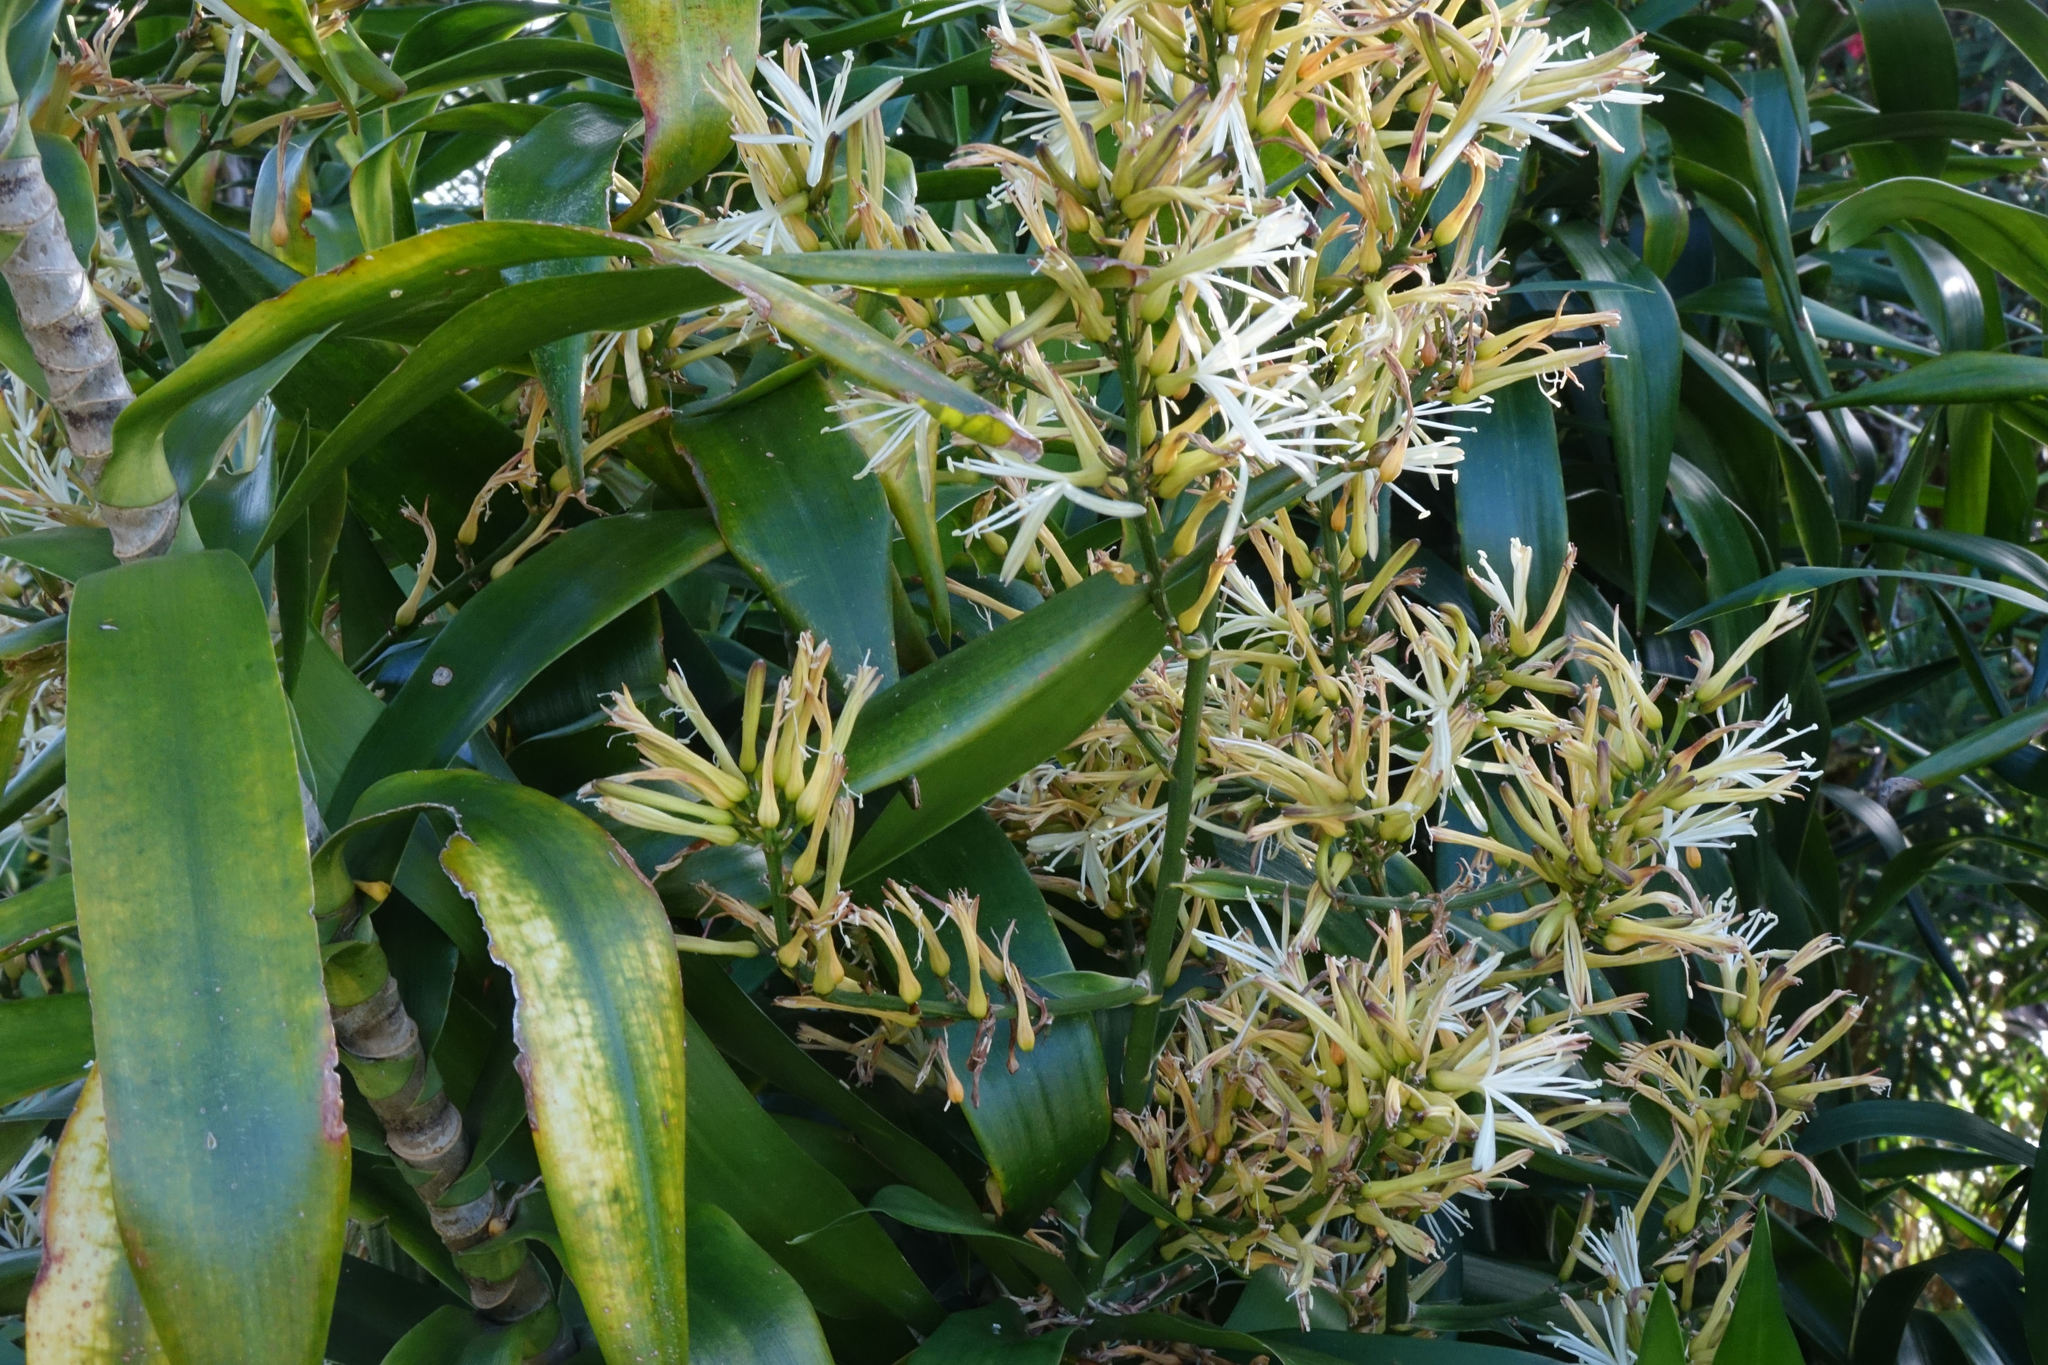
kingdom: Plantae
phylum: Tracheophyta
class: Liliopsida
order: Asparagales
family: Asparagaceae
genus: Dracaena
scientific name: Dracaena angustifolia
